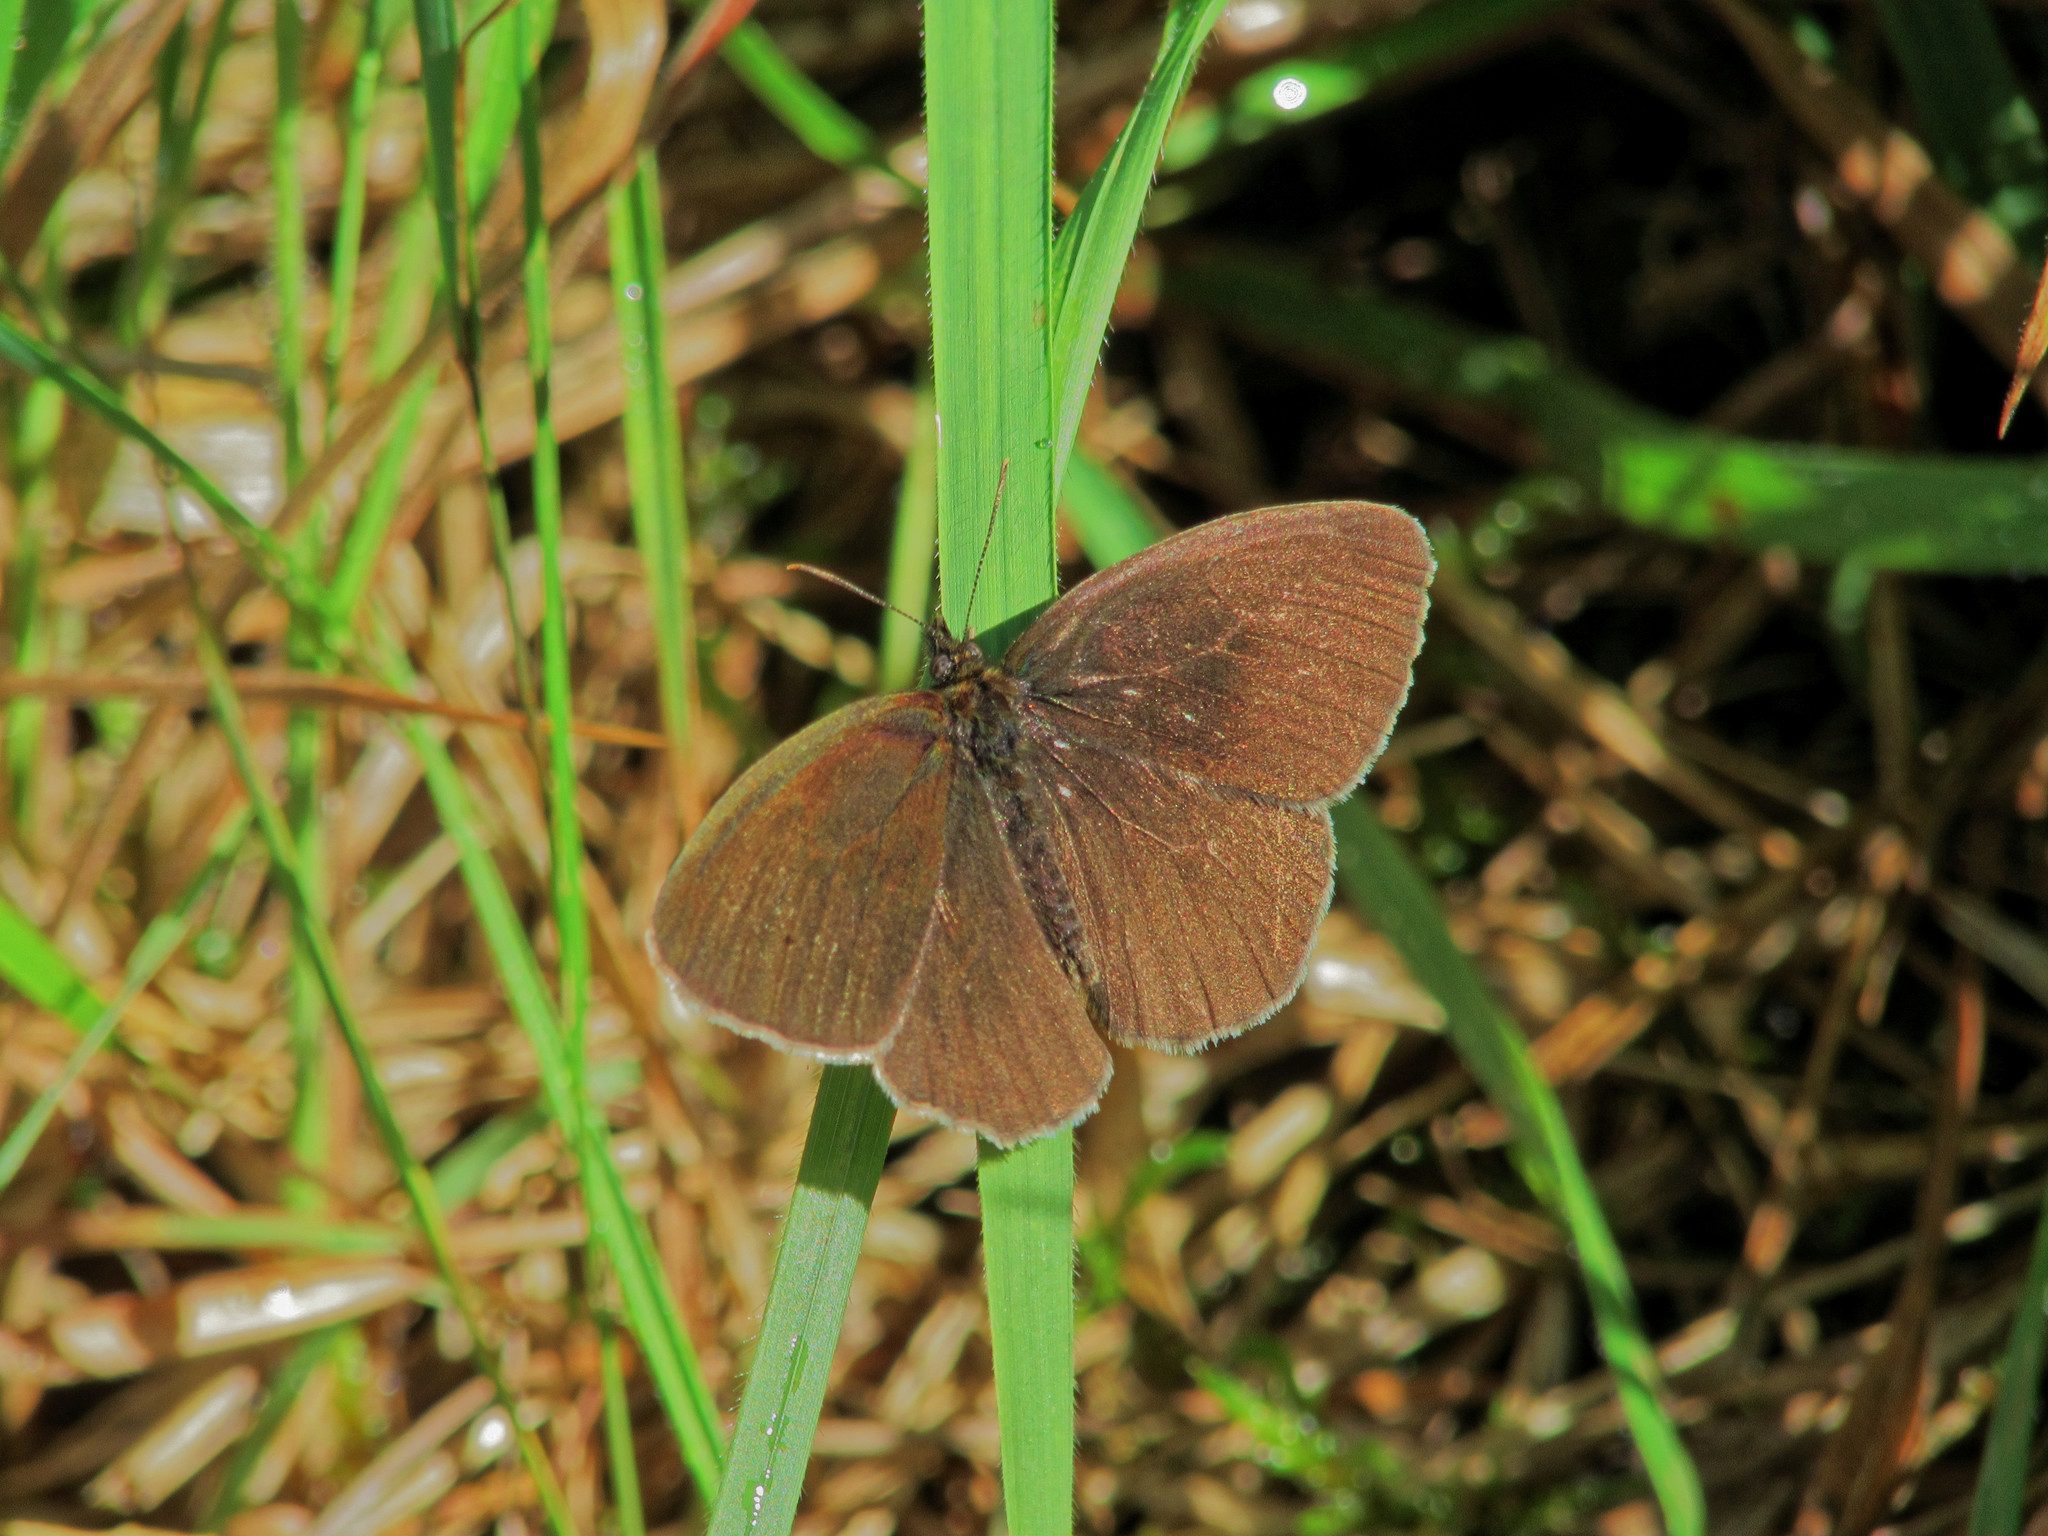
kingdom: Animalia
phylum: Arthropoda
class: Insecta
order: Lepidoptera
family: Nymphalidae
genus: Aphantopus
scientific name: Aphantopus hyperantus
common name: Ringlet
